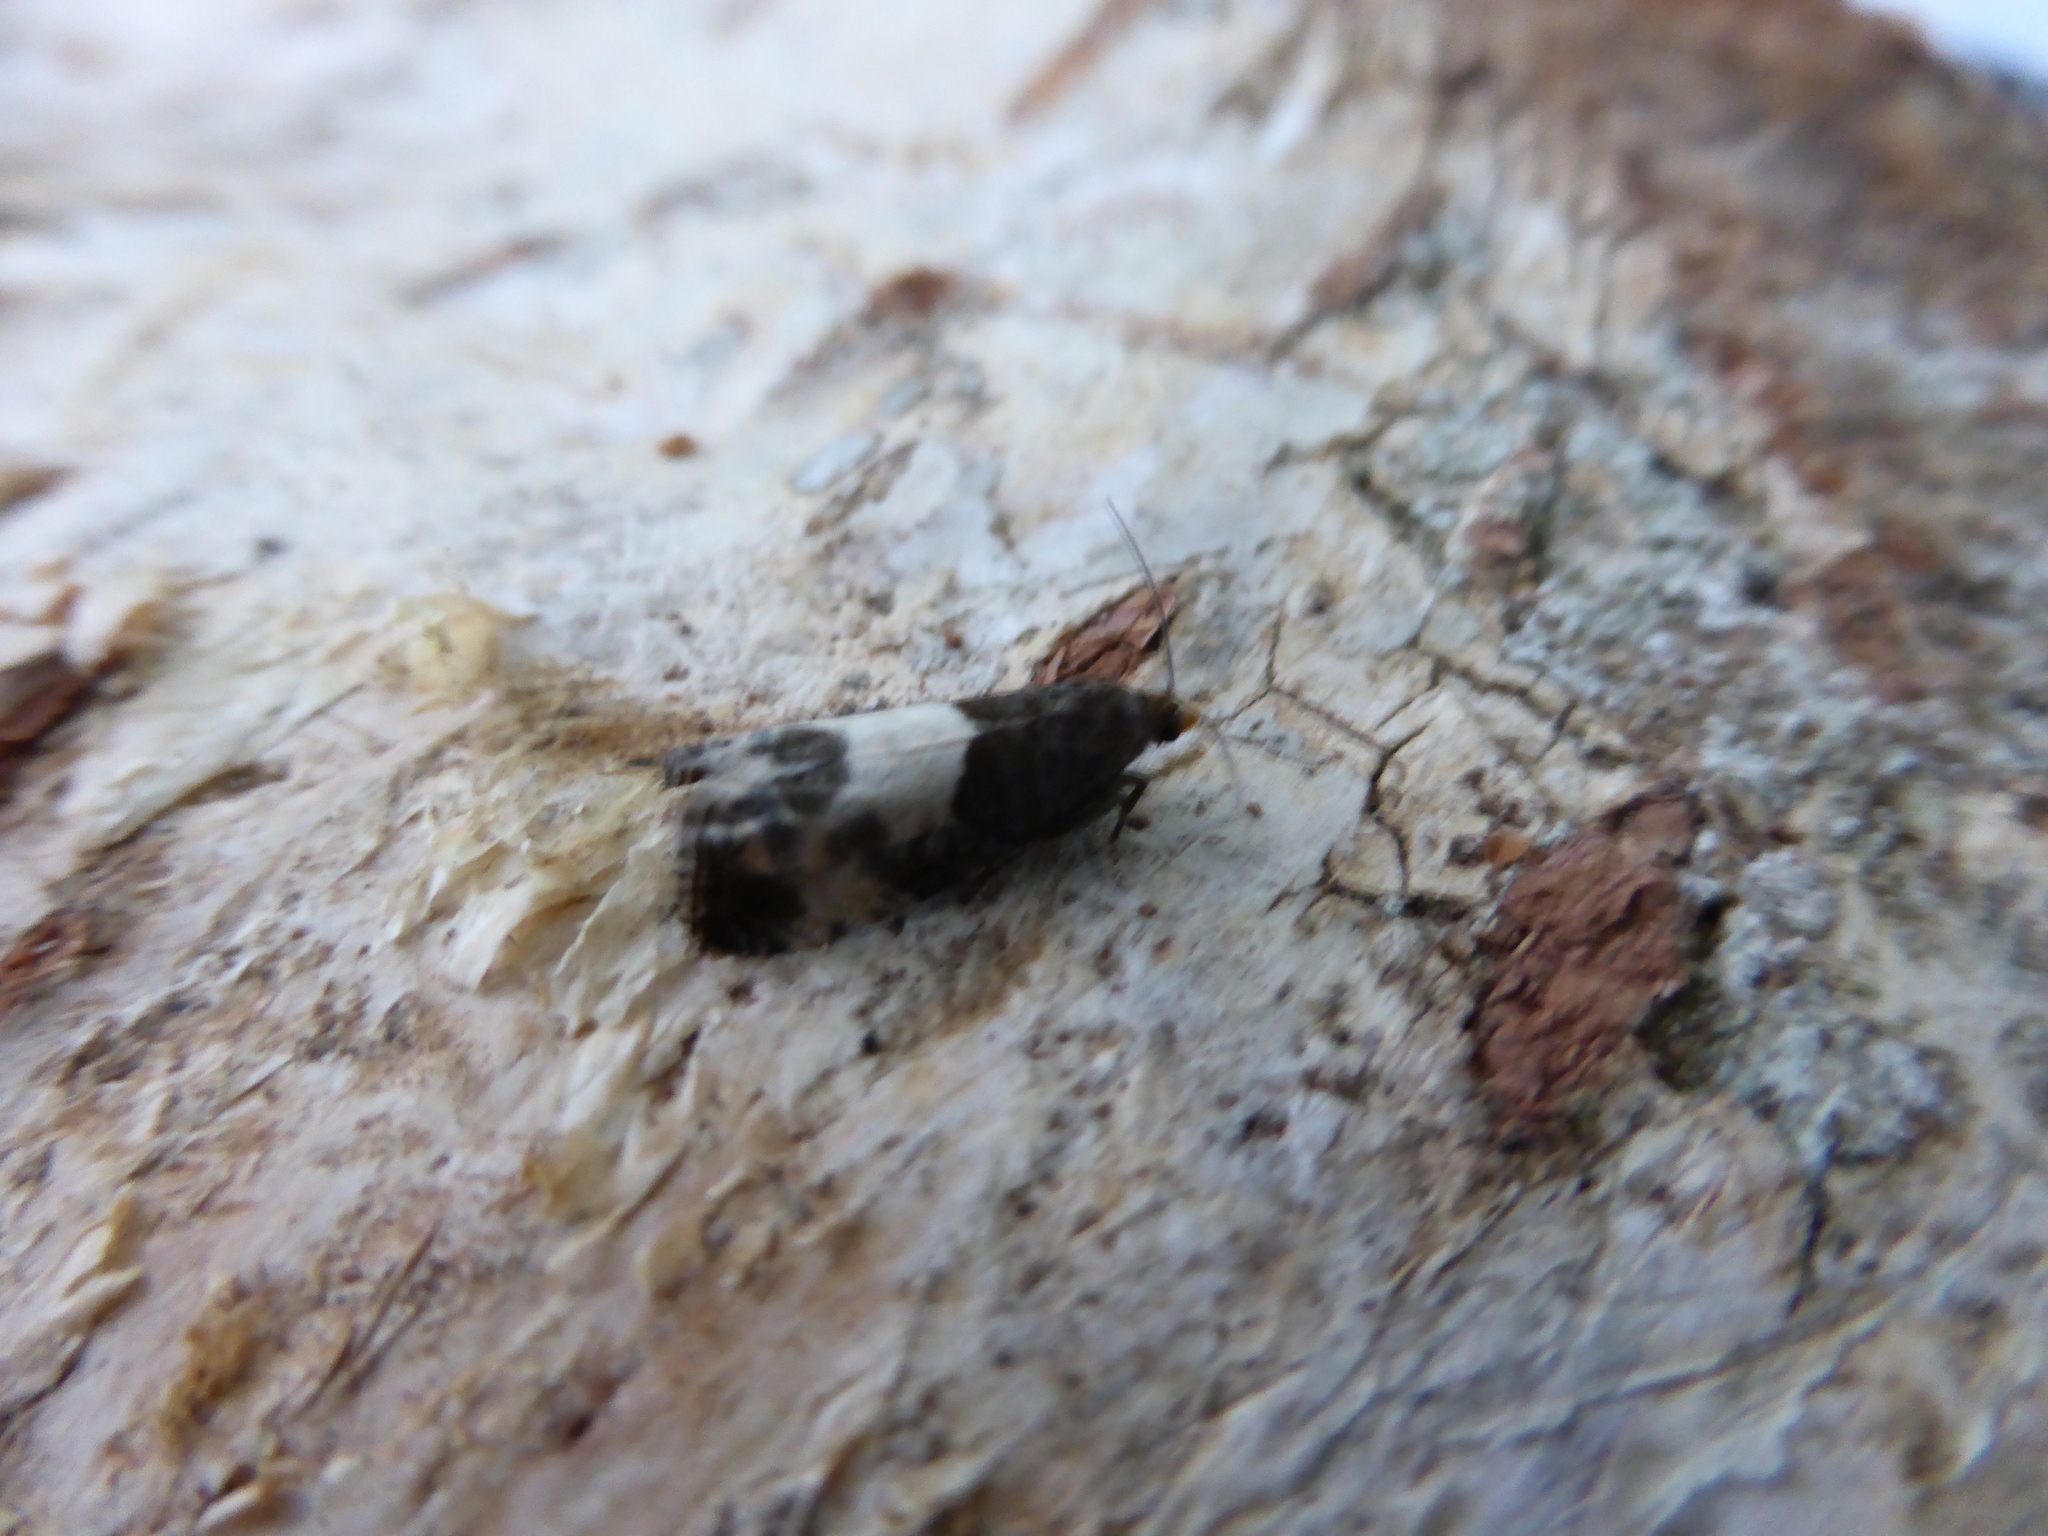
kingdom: Animalia
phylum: Arthropoda
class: Insecta
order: Lepidoptera
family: Tortricidae
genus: Notocelia
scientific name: Notocelia cynosbatella
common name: Yellow-faced bell moth
